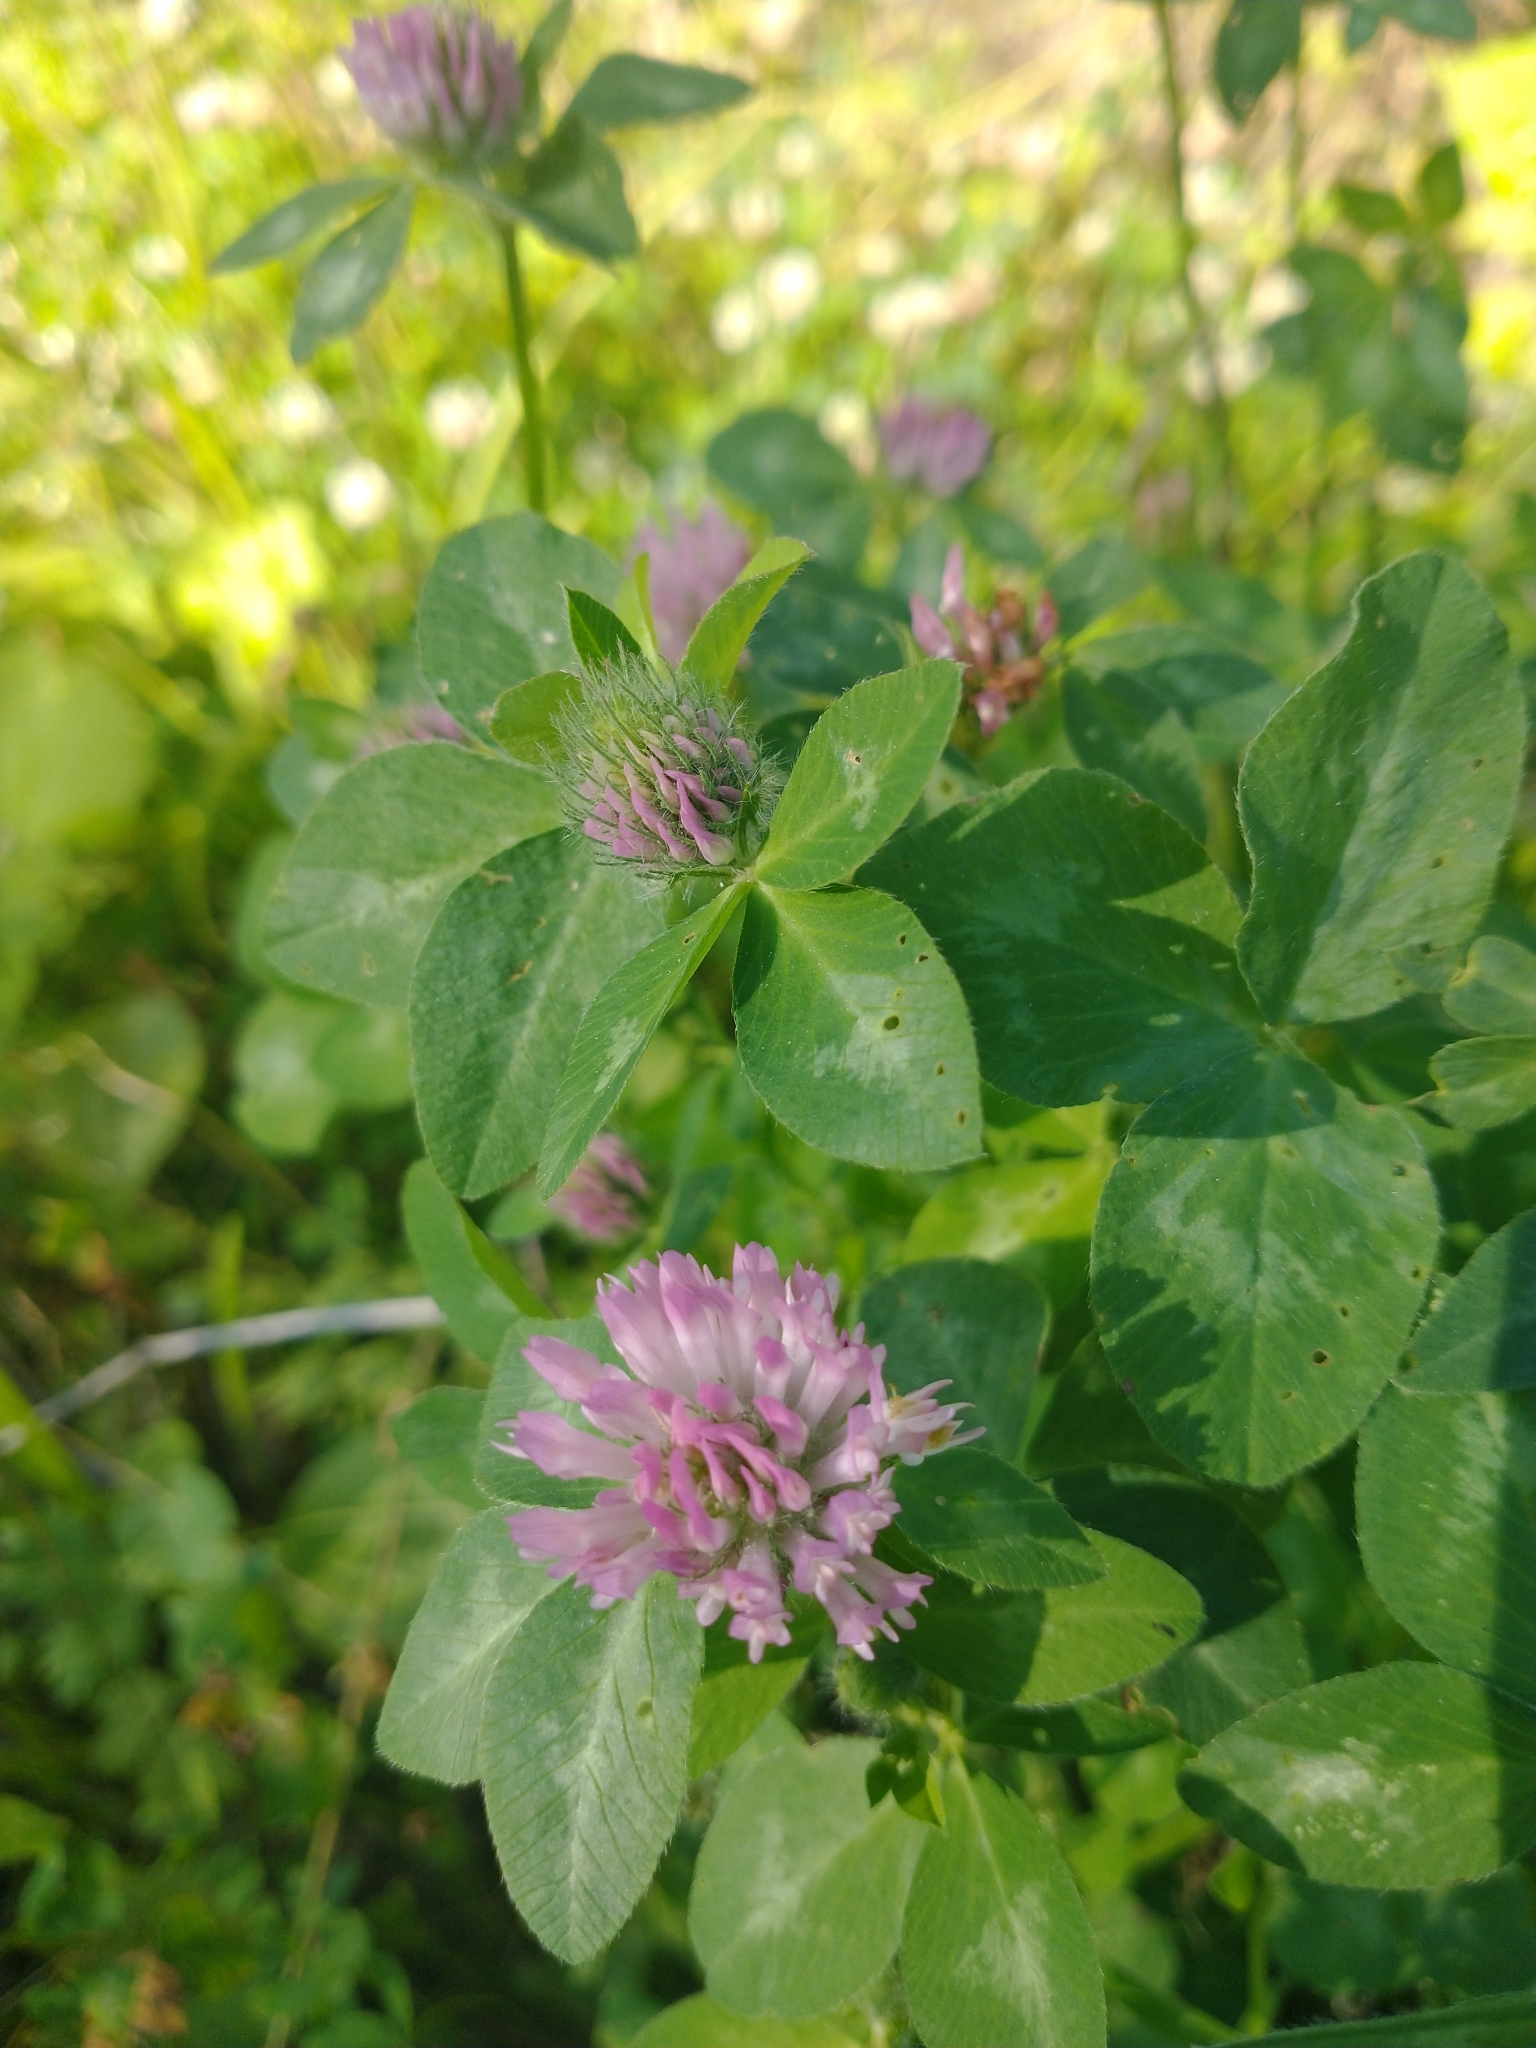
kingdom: Plantae
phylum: Tracheophyta
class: Magnoliopsida
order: Fabales
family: Fabaceae
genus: Trifolium
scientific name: Trifolium pratense
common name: Red clover
